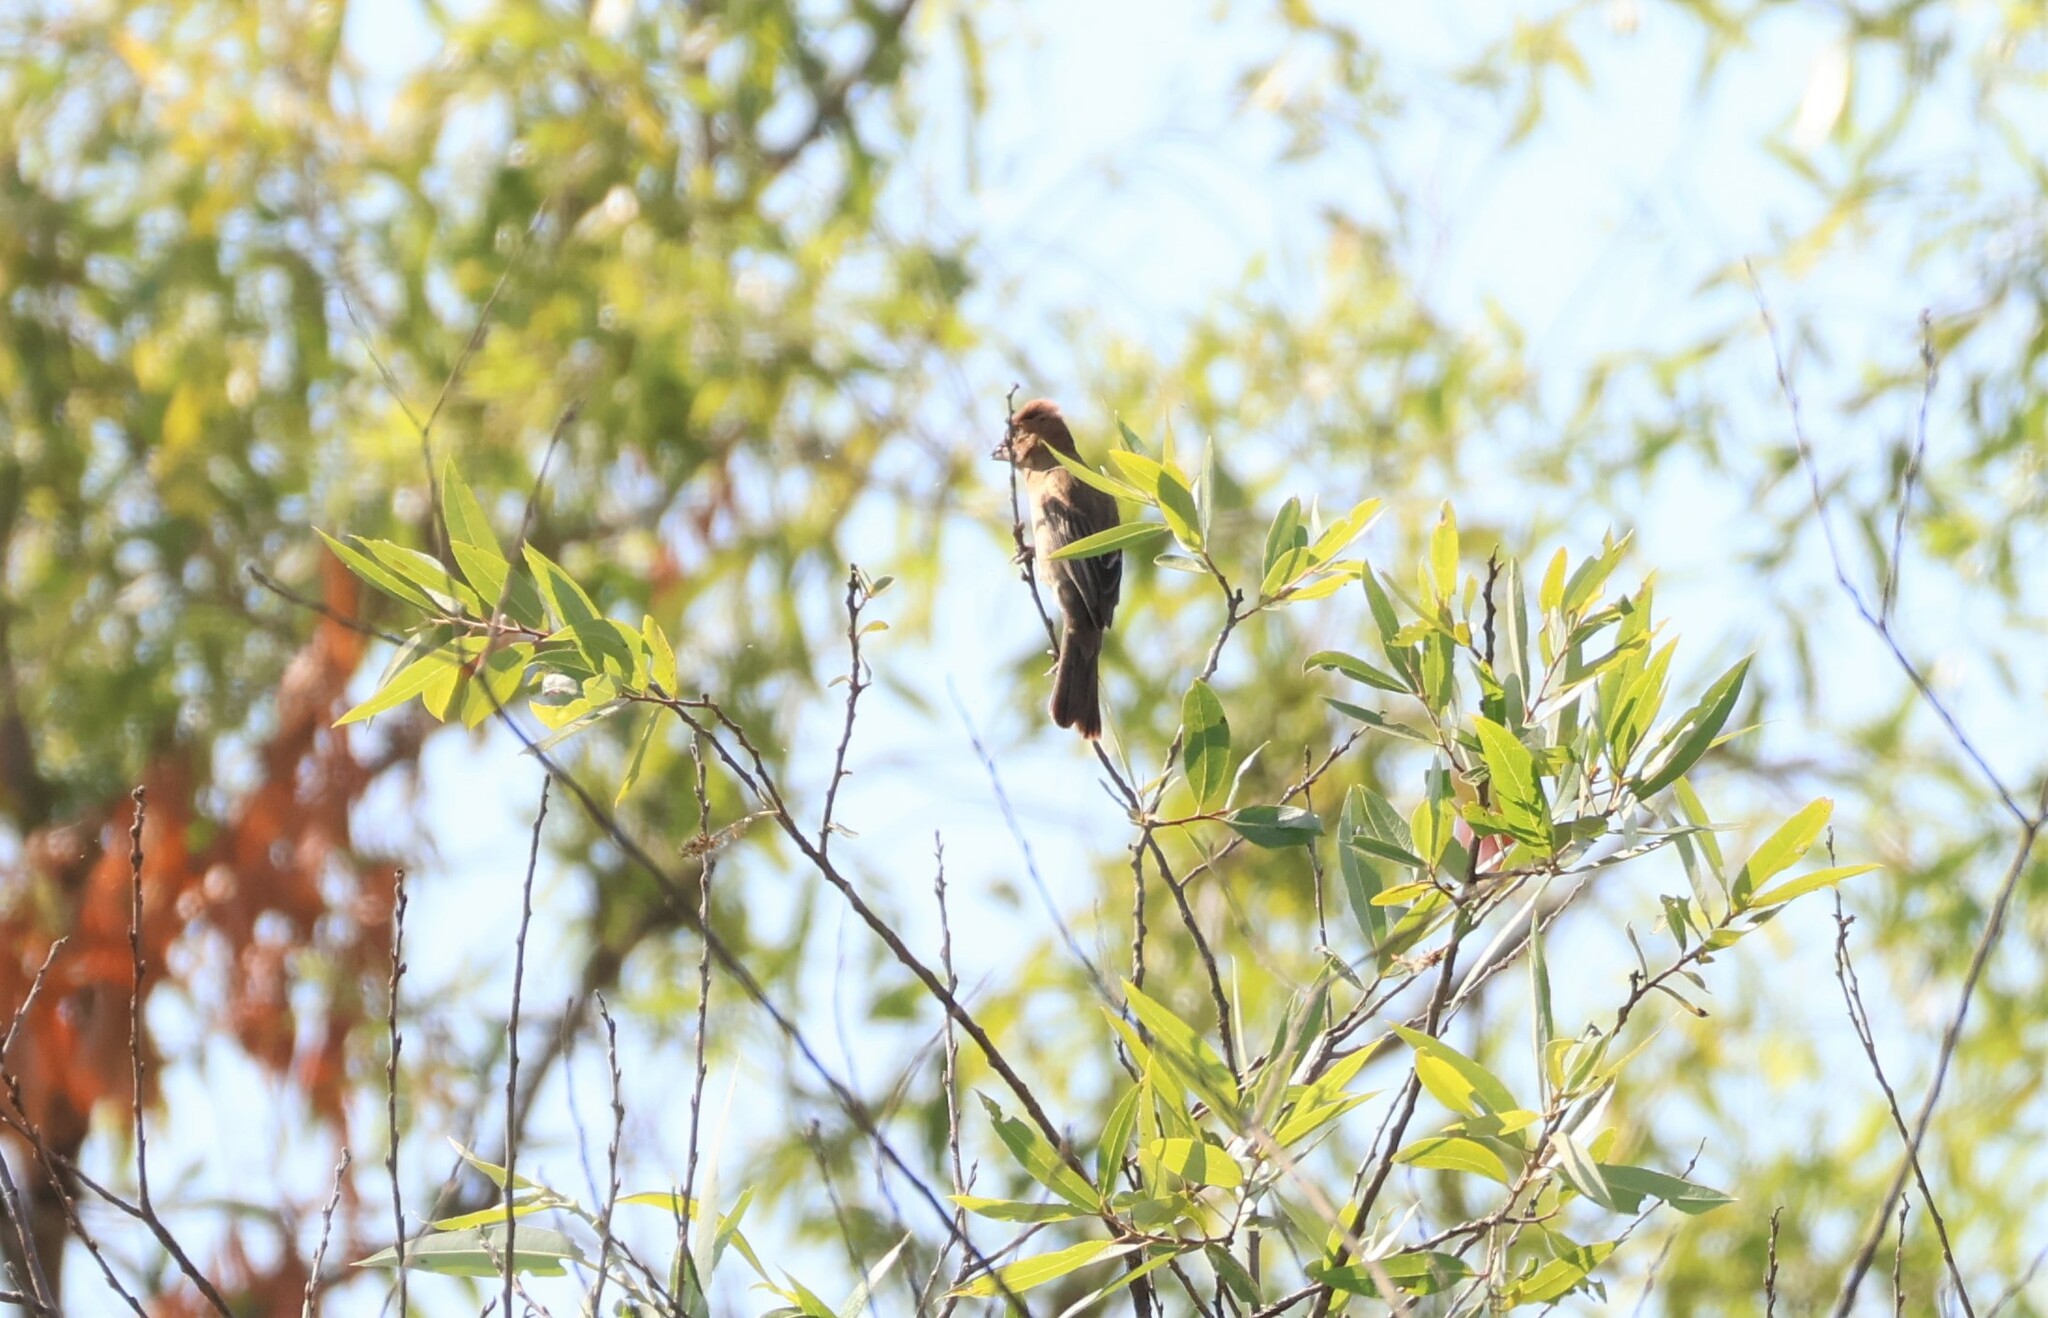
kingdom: Animalia
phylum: Chordata
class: Aves
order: Passeriformes
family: Cardinalidae
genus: Passerina
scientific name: Passerina caerulea
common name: Blue grosbeak
